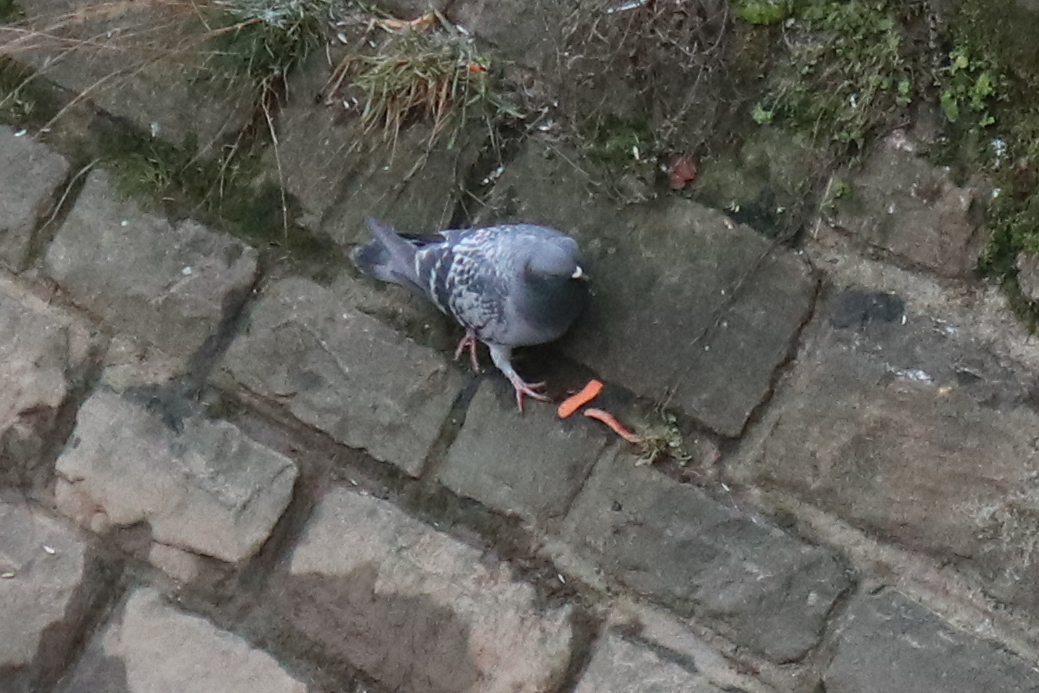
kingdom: Animalia
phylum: Chordata
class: Aves
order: Columbiformes
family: Columbidae
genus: Columba
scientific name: Columba livia
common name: Rock pigeon
